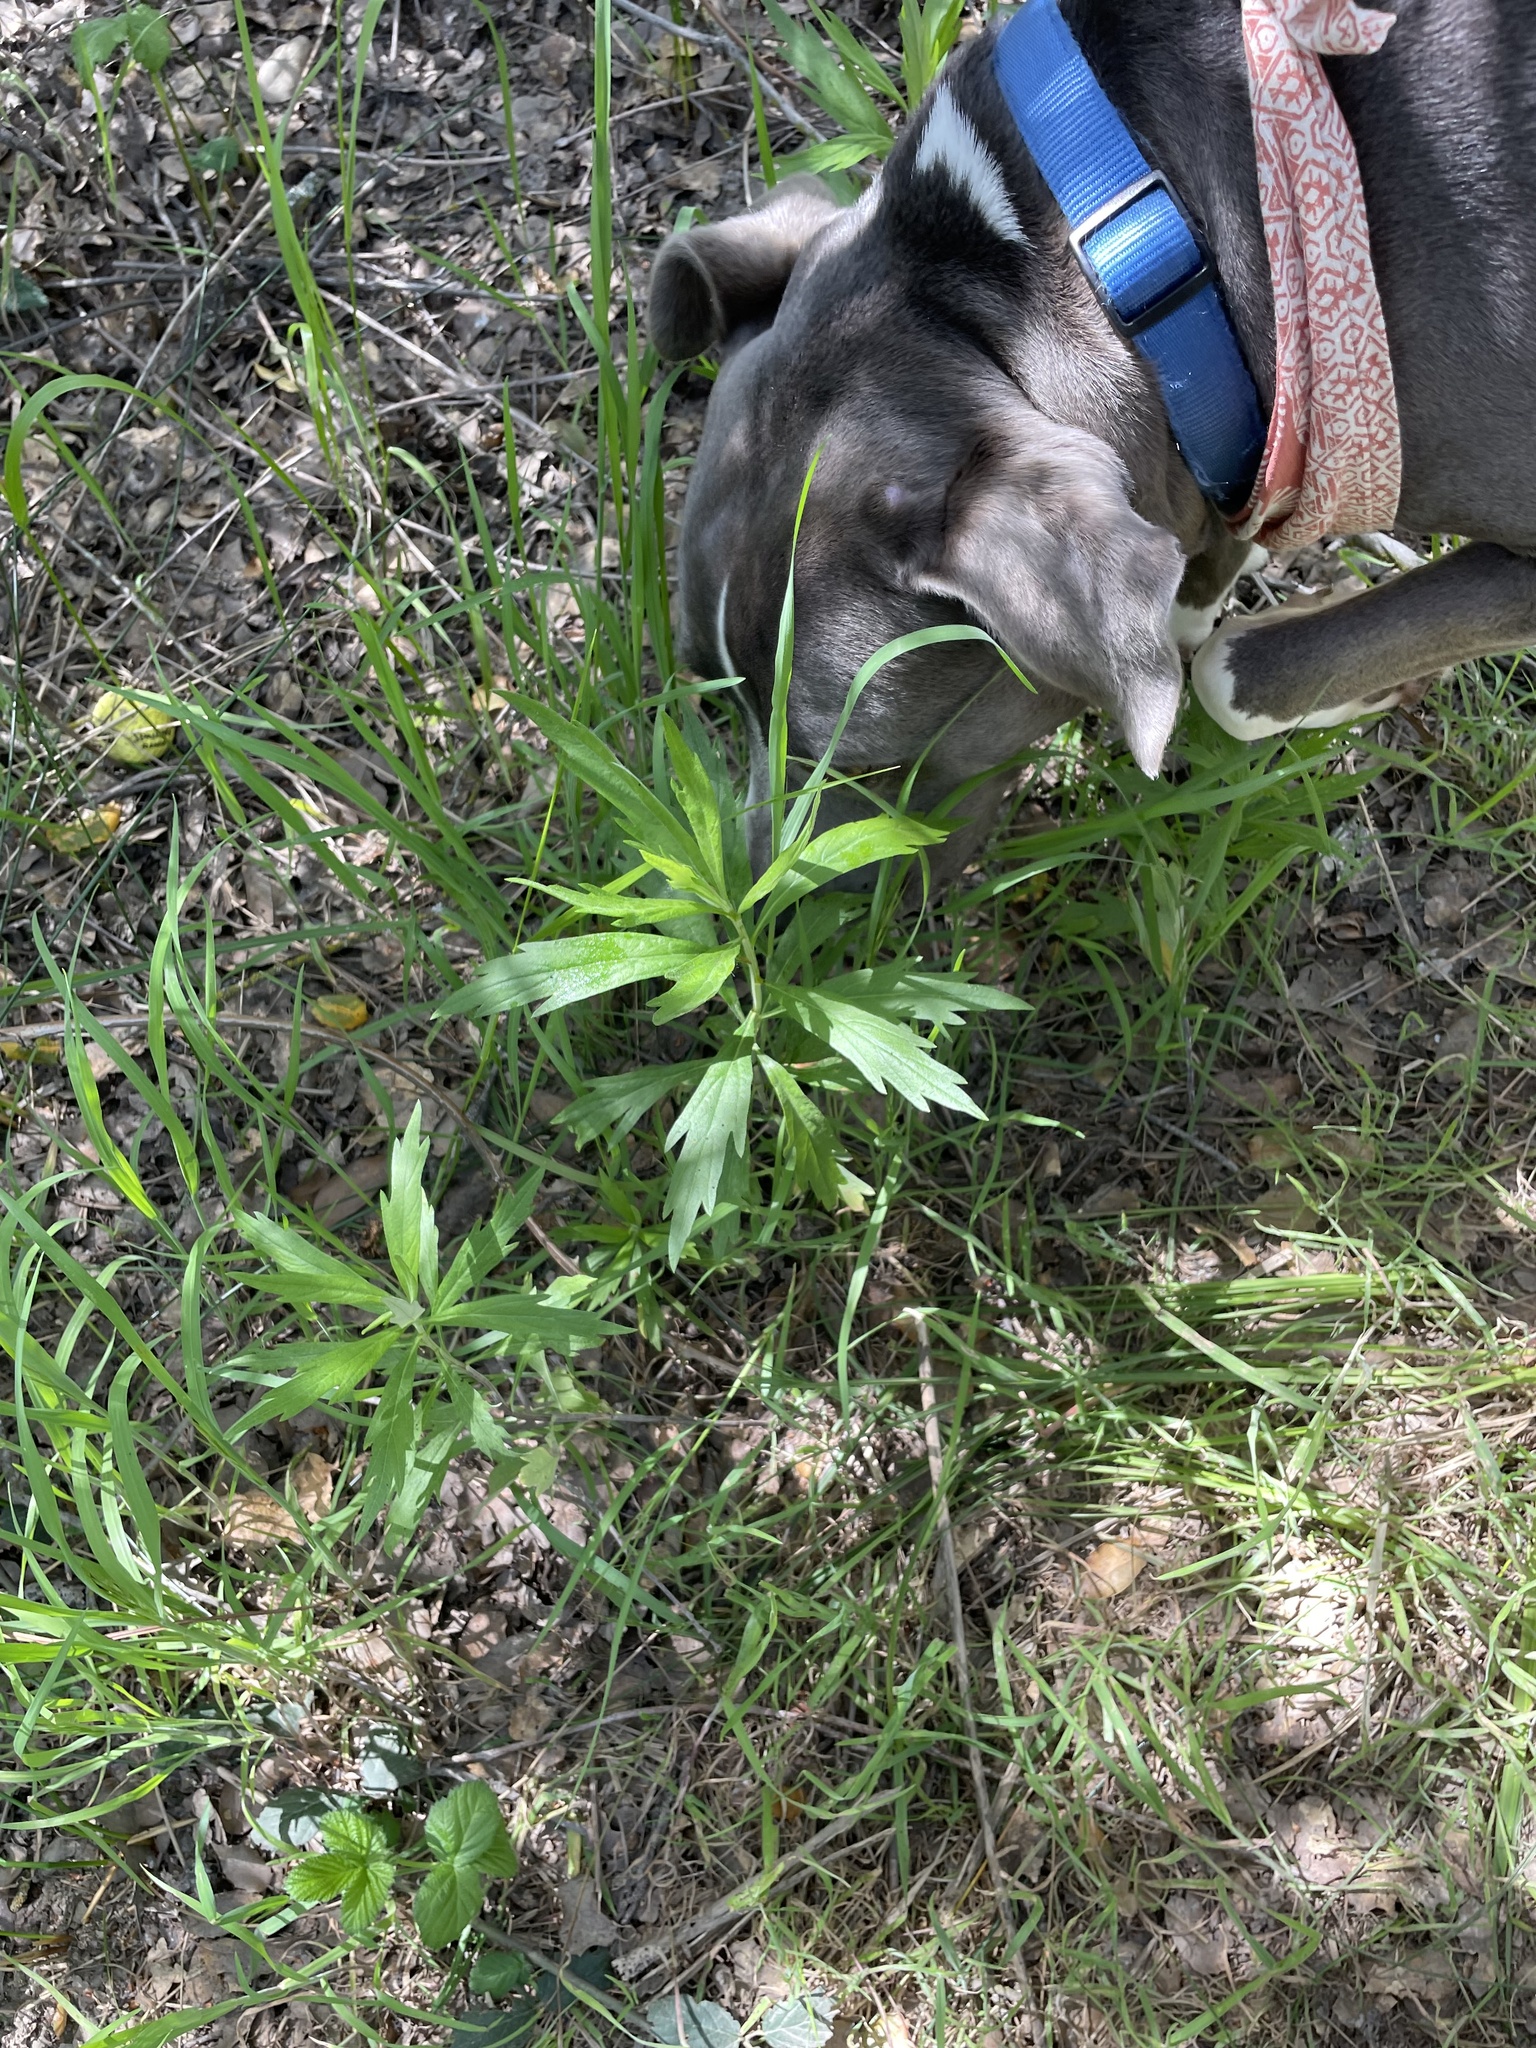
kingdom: Plantae
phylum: Tracheophyta
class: Magnoliopsida
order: Asterales
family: Asteraceae
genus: Artemisia
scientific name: Artemisia douglasiana
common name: Northwest mugwort
